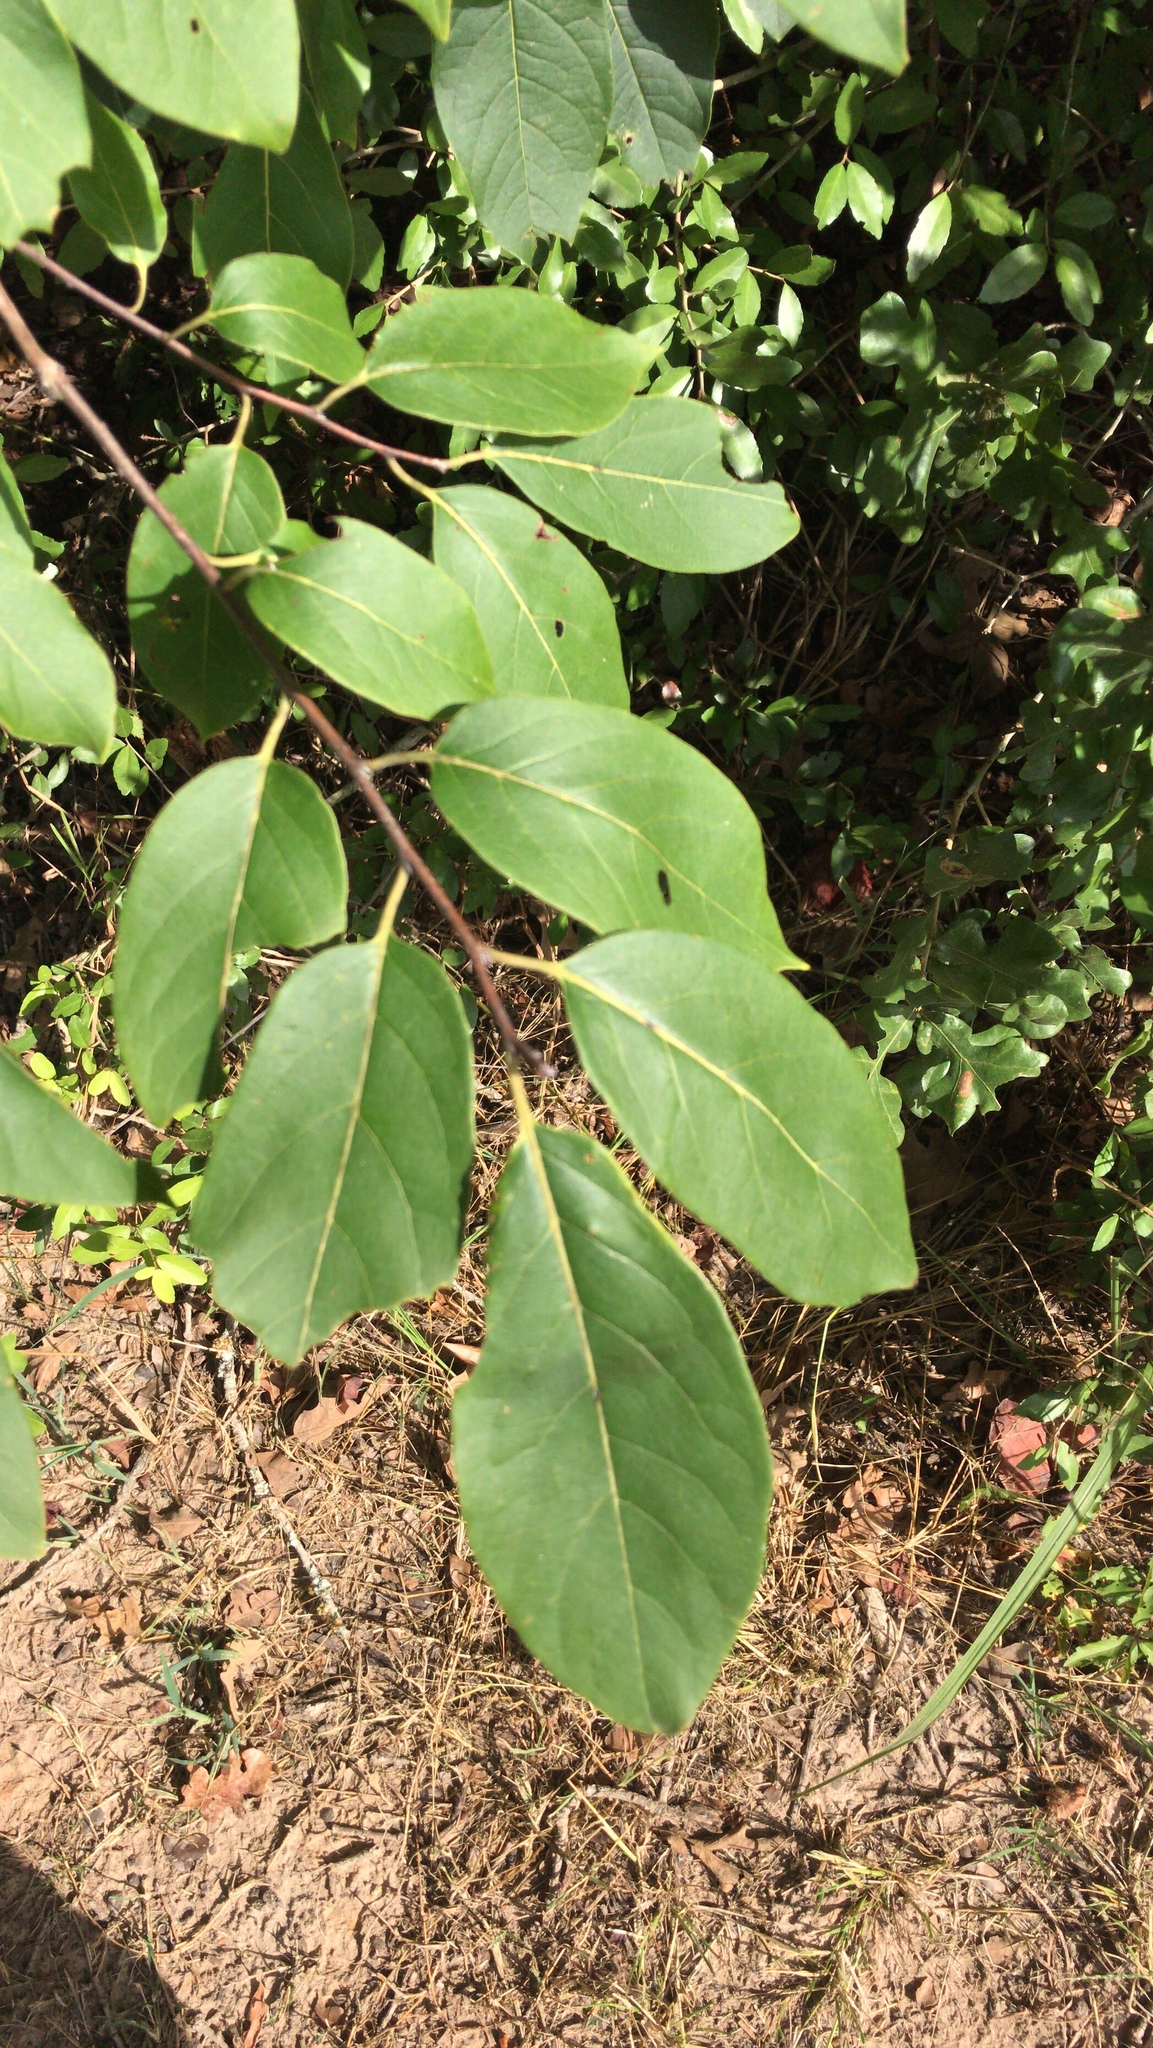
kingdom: Plantae
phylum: Tracheophyta
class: Magnoliopsida
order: Ericales
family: Ebenaceae
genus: Diospyros
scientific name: Diospyros virginiana
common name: Persimmon
